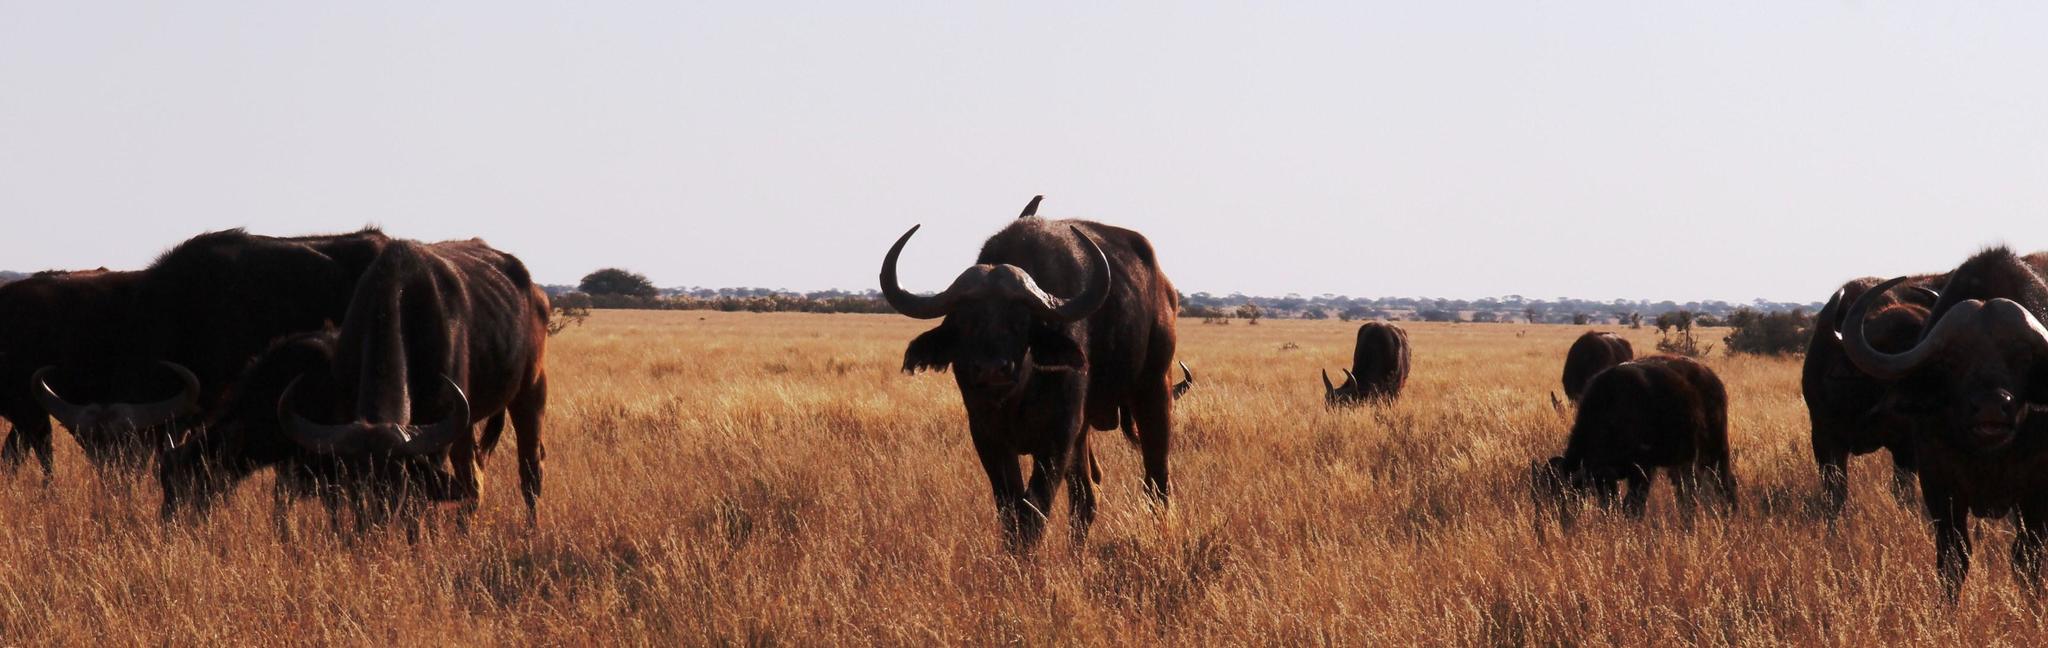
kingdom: Animalia
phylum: Chordata
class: Aves
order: Passeriformes
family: Buphagidae
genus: Buphagus
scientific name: Buphagus erythrorhynchus
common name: Red-billed oxpecker
